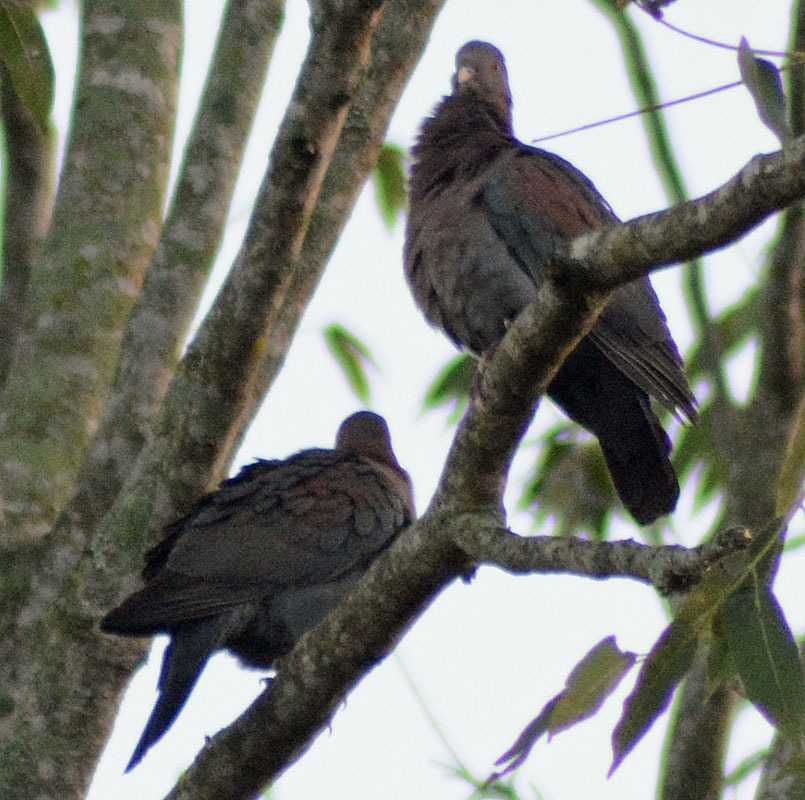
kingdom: Animalia
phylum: Chordata
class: Aves
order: Columbiformes
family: Columbidae
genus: Patagioenas
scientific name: Patagioenas flavirostris
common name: Red-billed pigeon
